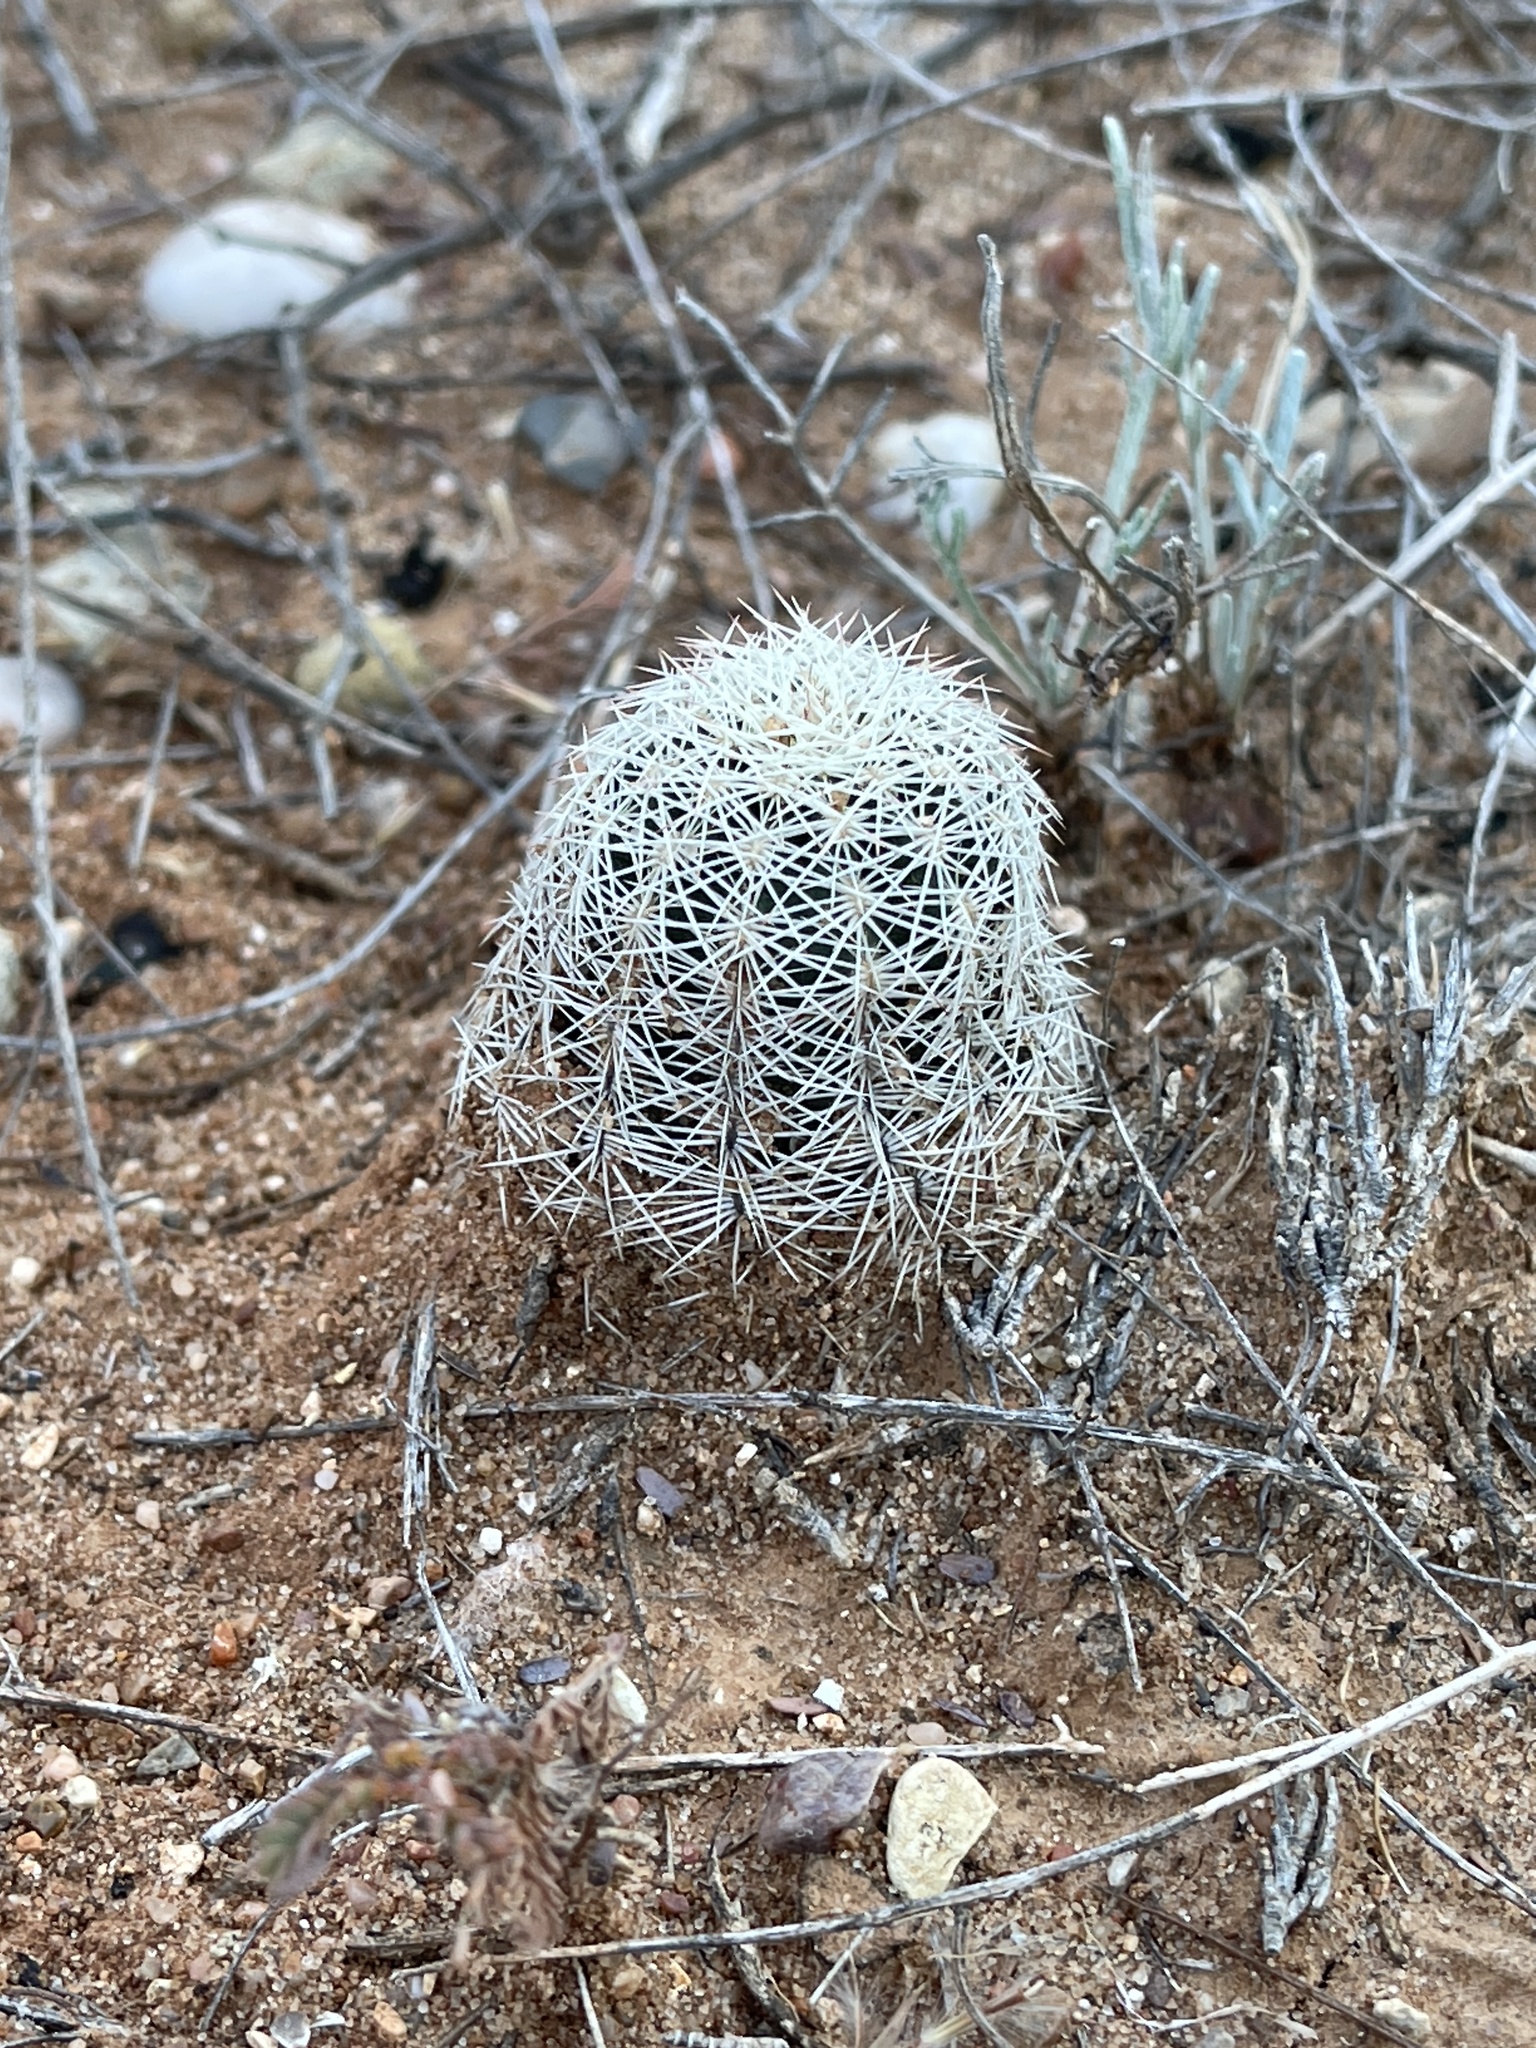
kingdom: Plantae
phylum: Tracheophyta
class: Magnoliopsida
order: Caryophyllales
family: Cactaceae
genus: Echinocereus
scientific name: Echinocereus reichenbachii
